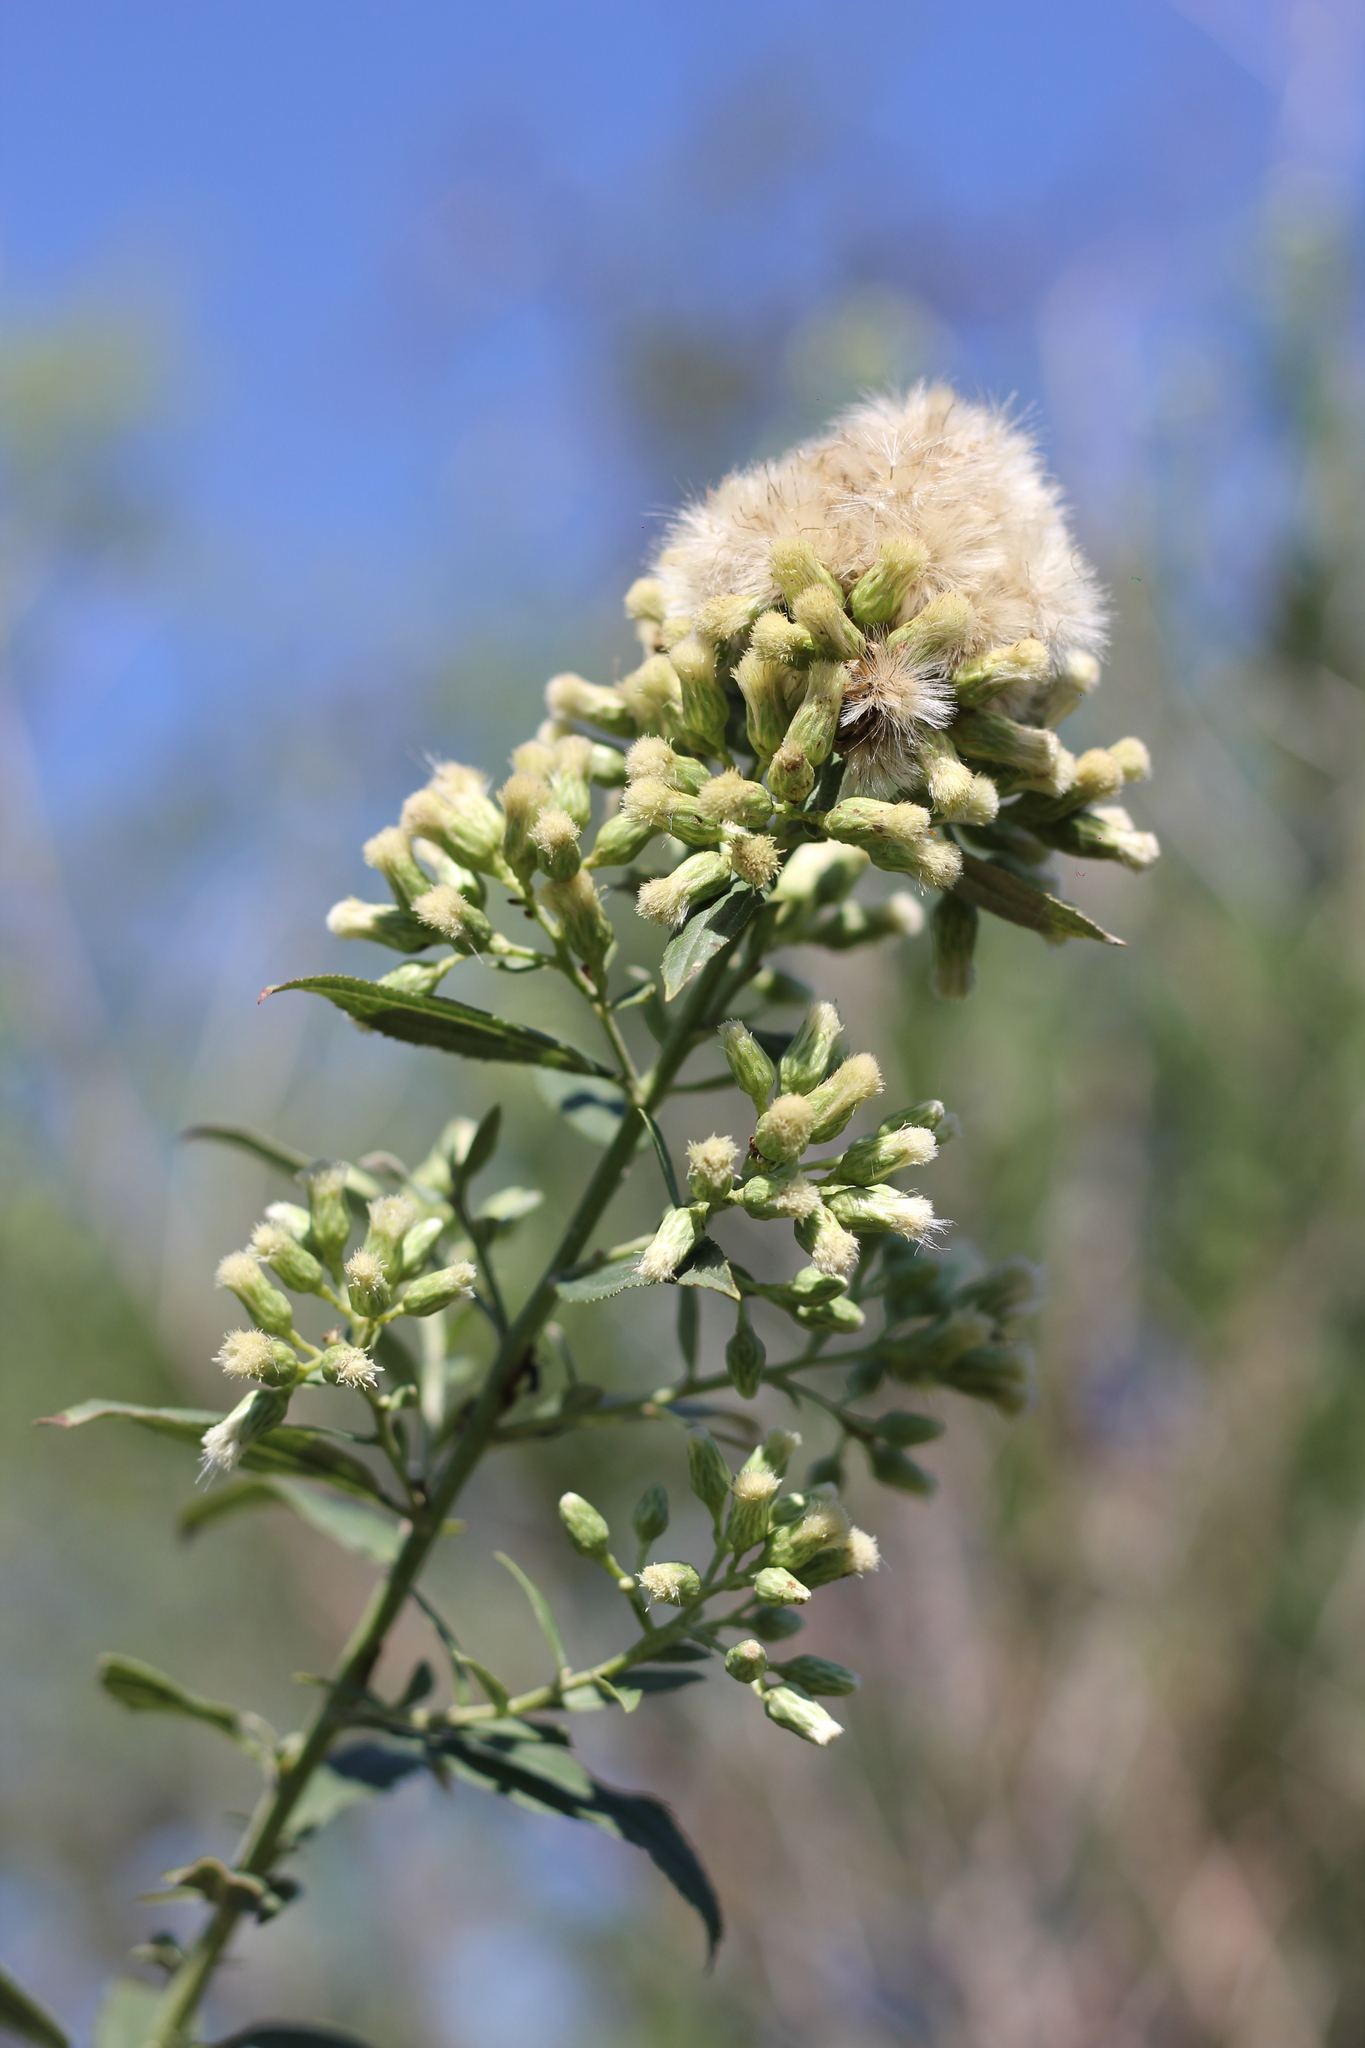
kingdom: Plantae
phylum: Tracheophyta
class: Magnoliopsida
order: Asterales
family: Asteraceae
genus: Baccharis
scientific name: Baccharis punctulata
